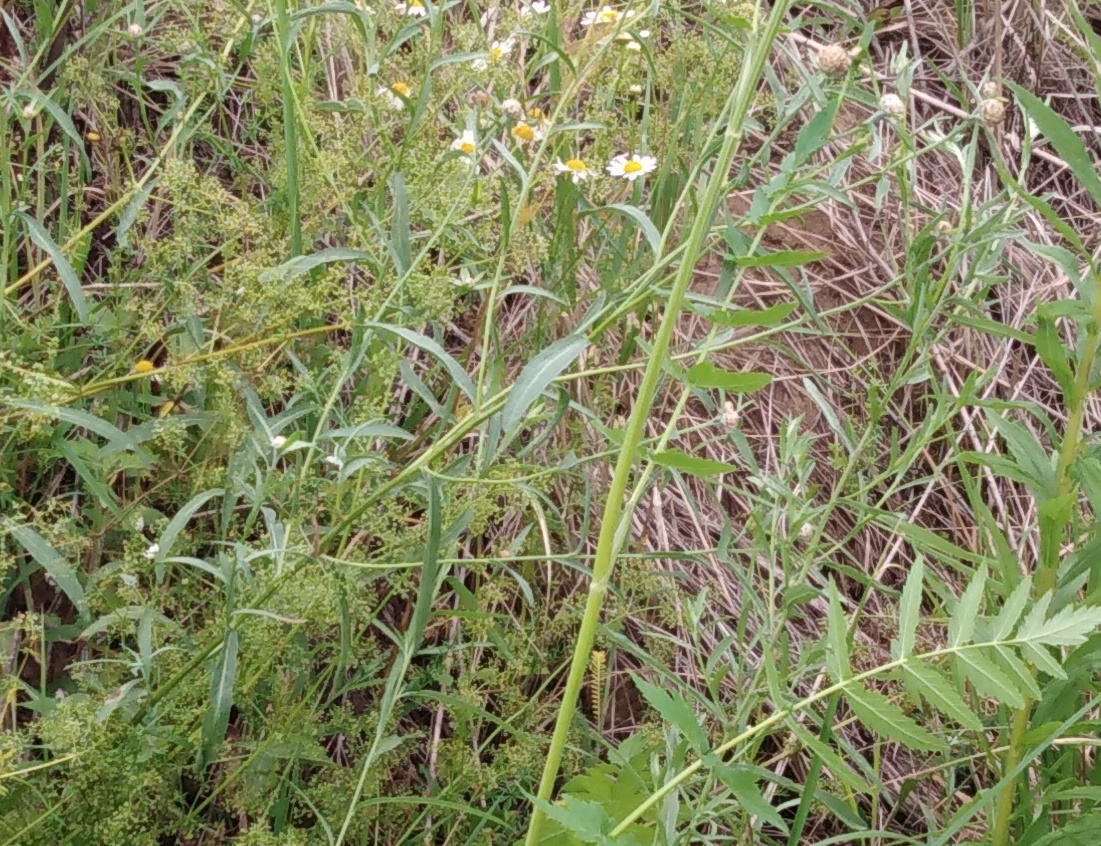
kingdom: Plantae
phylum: Tracheophyta
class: Magnoliopsida
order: Asterales
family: Asteraceae
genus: Centaurea
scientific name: Centaurea jacea
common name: Brown knapweed
